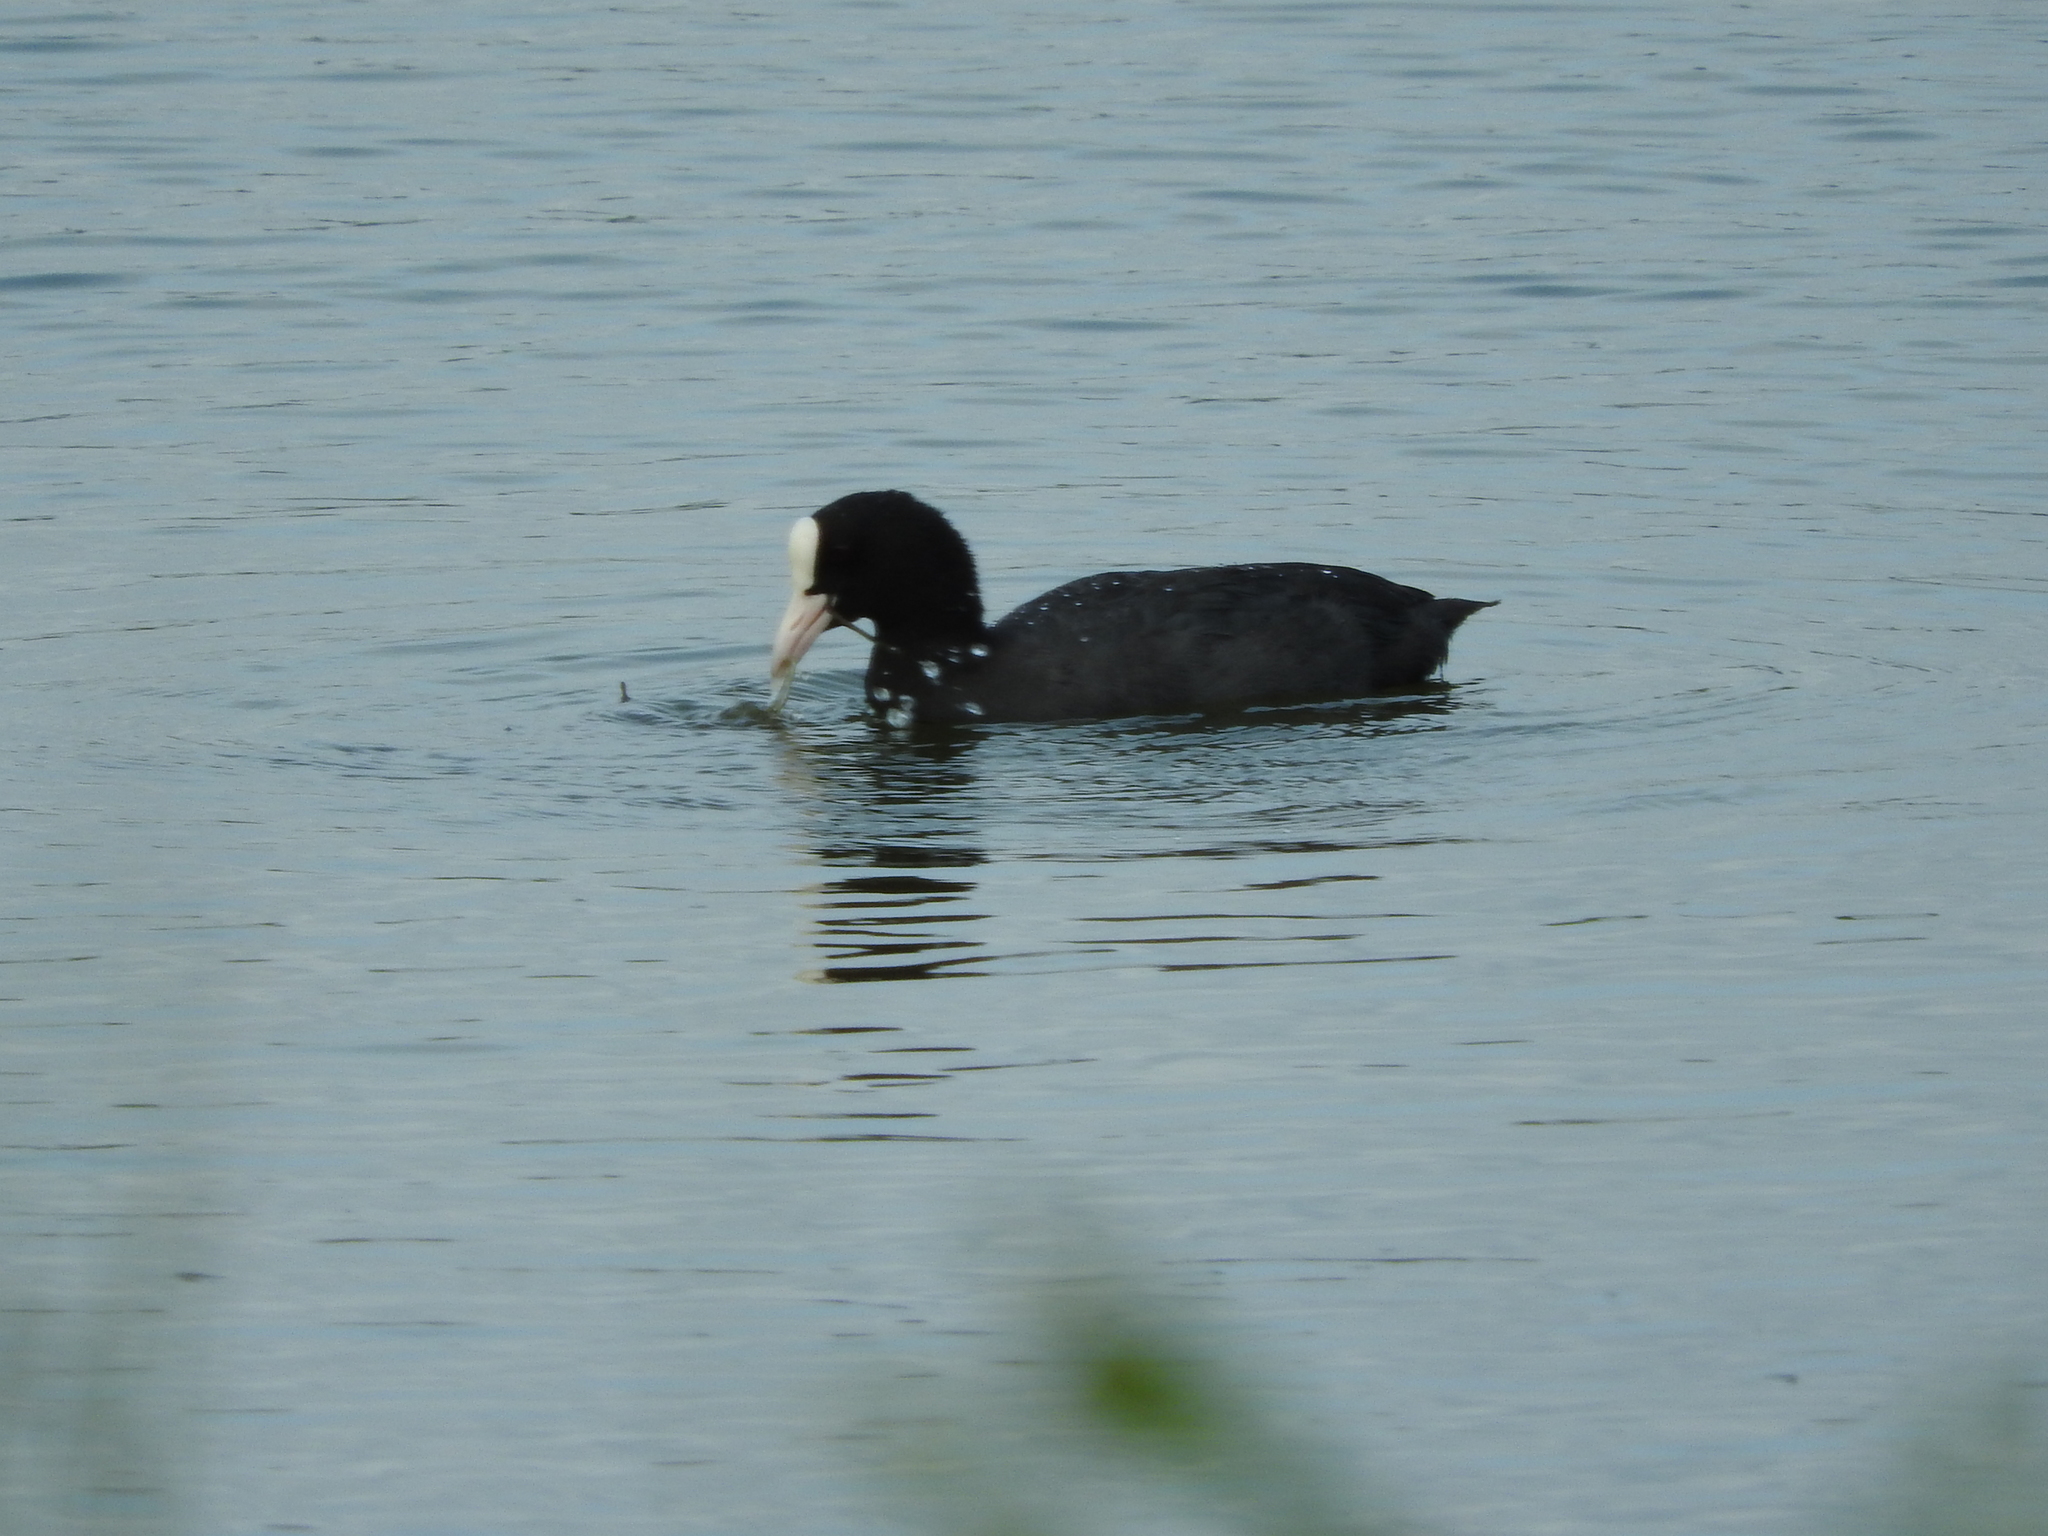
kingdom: Animalia
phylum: Chordata
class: Aves
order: Gruiformes
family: Rallidae
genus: Fulica
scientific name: Fulica atra
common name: Eurasian coot
